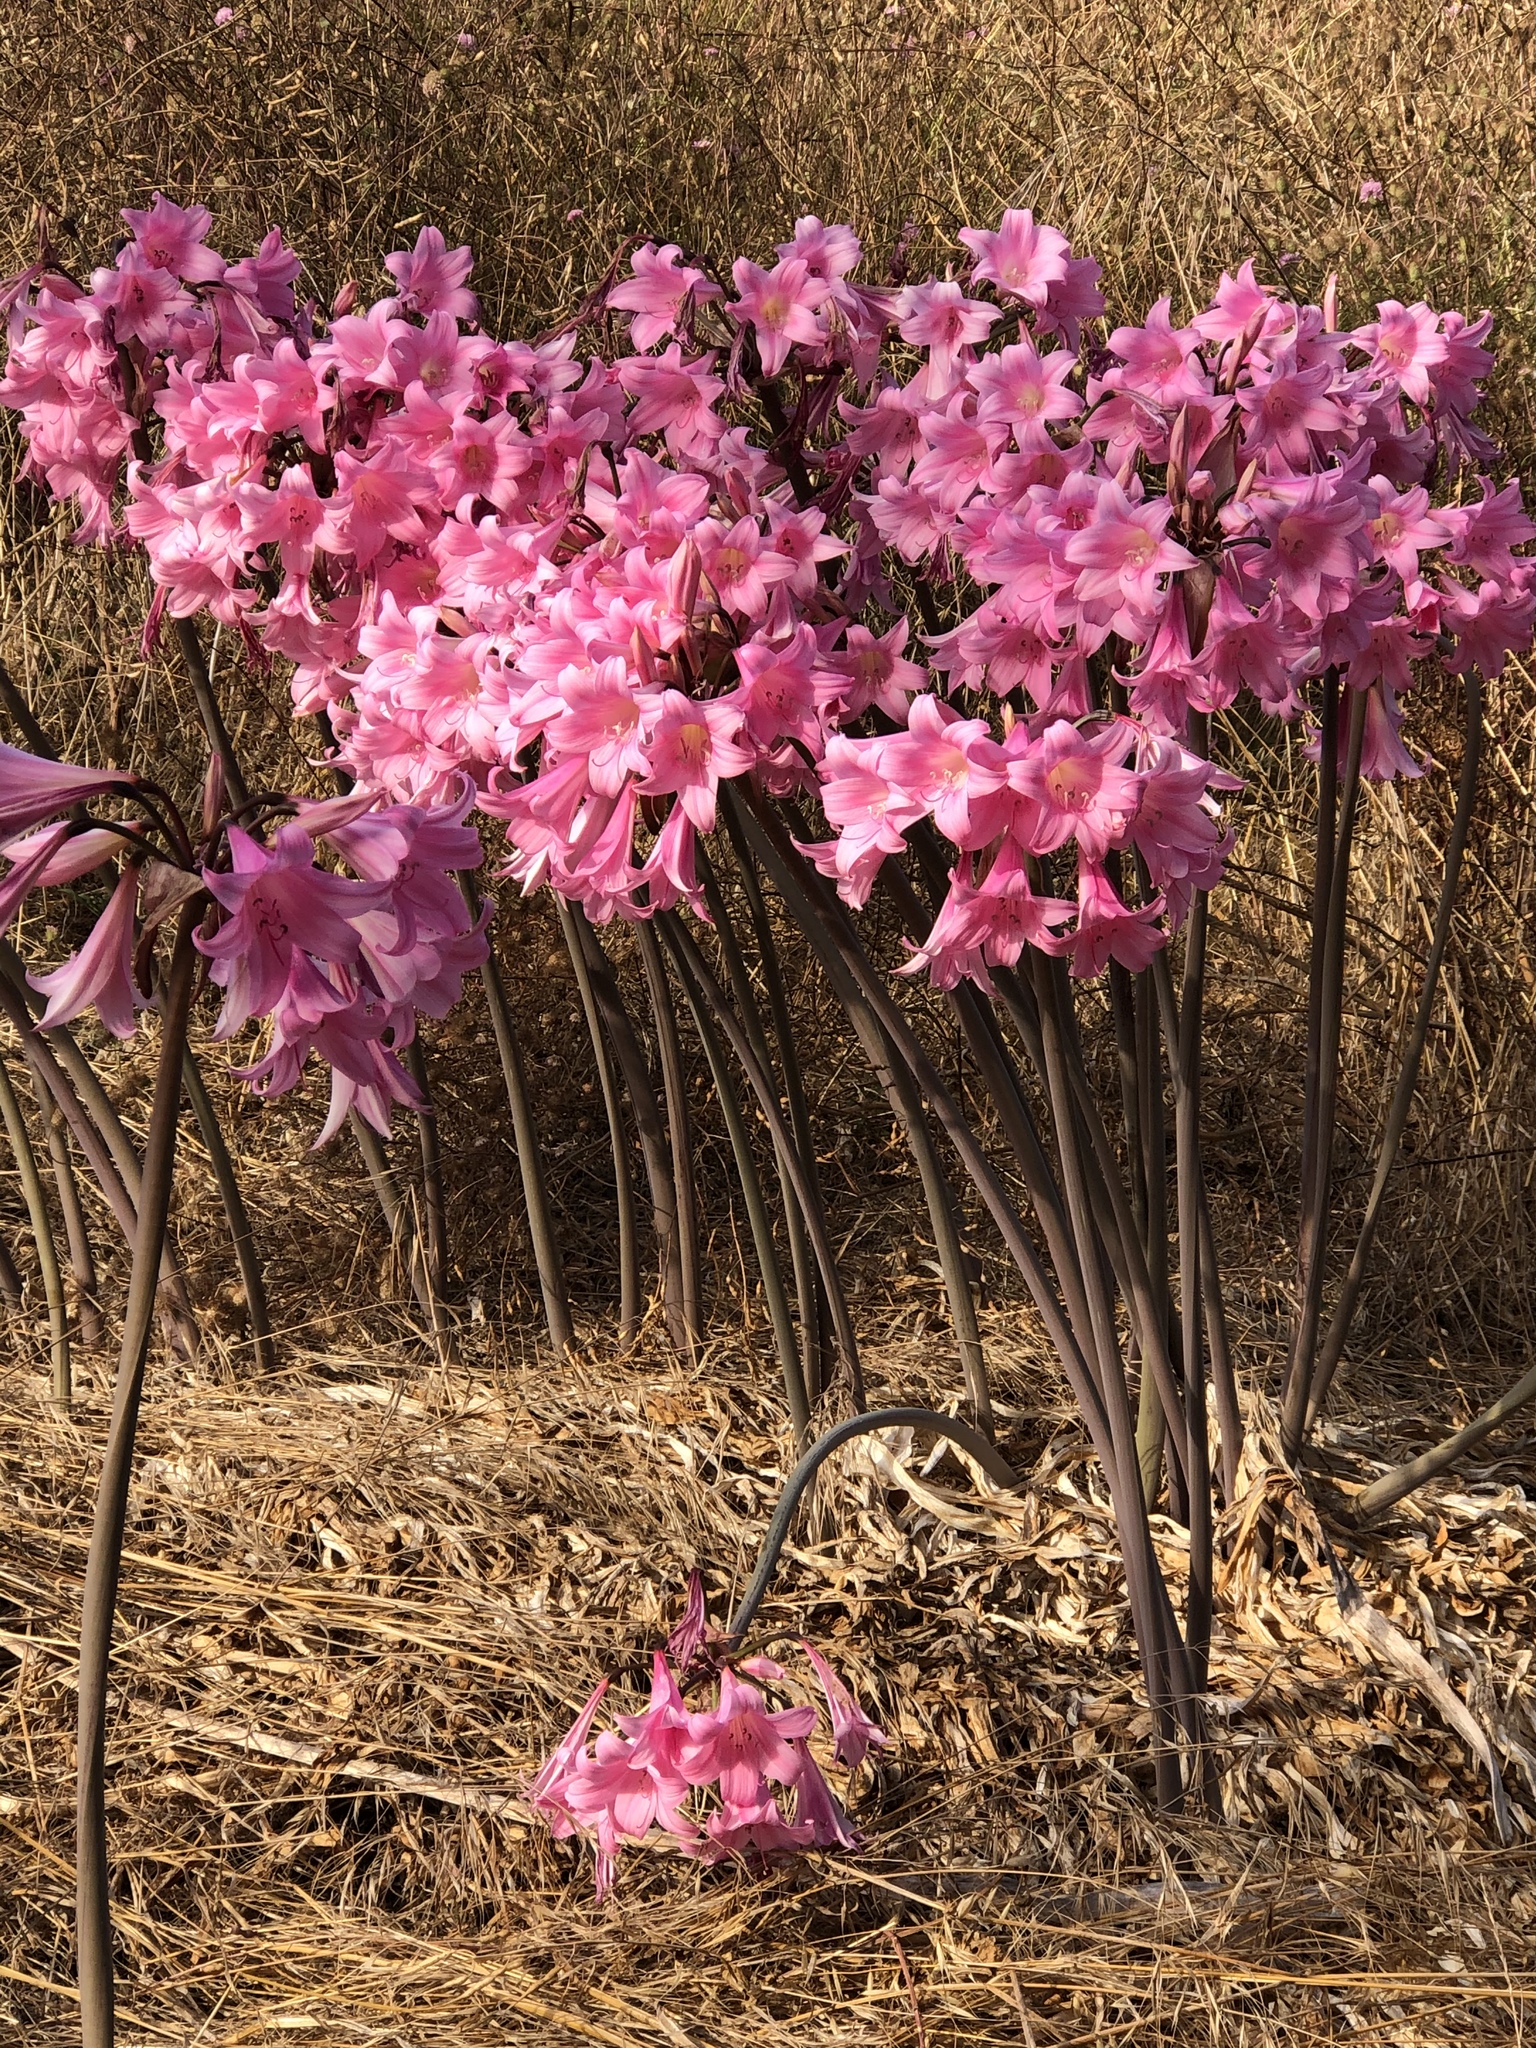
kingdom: Plantae
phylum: Tracheophyta
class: Liliopsida
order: Asparagales
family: Amaryllidaceae
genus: Amaryllis
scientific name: Amaryllis belladonna
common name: Jersey lily
